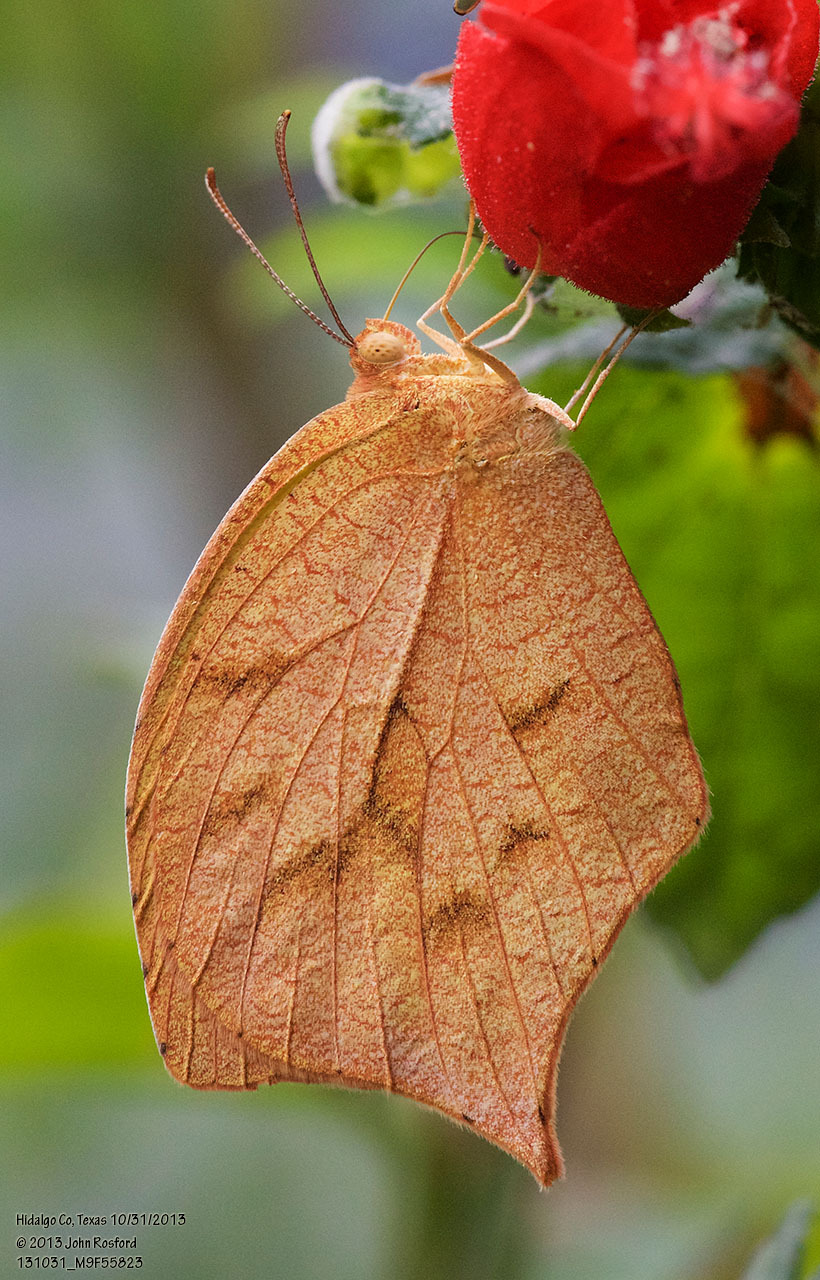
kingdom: Animalia
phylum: Arthropoda
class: Insecta
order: Lepidoptera
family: Pieridae
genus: Pyrisitia
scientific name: Pyrisitia proterpia
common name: Tailed orange
